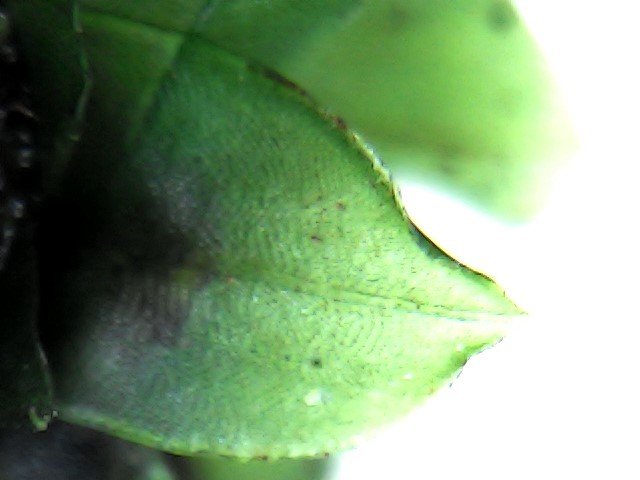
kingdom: Plantae
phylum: Bryophyta
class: Bryopsida
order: Bryales
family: Bryaceae
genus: Rosulabryum
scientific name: Rosulabryum billardierei
